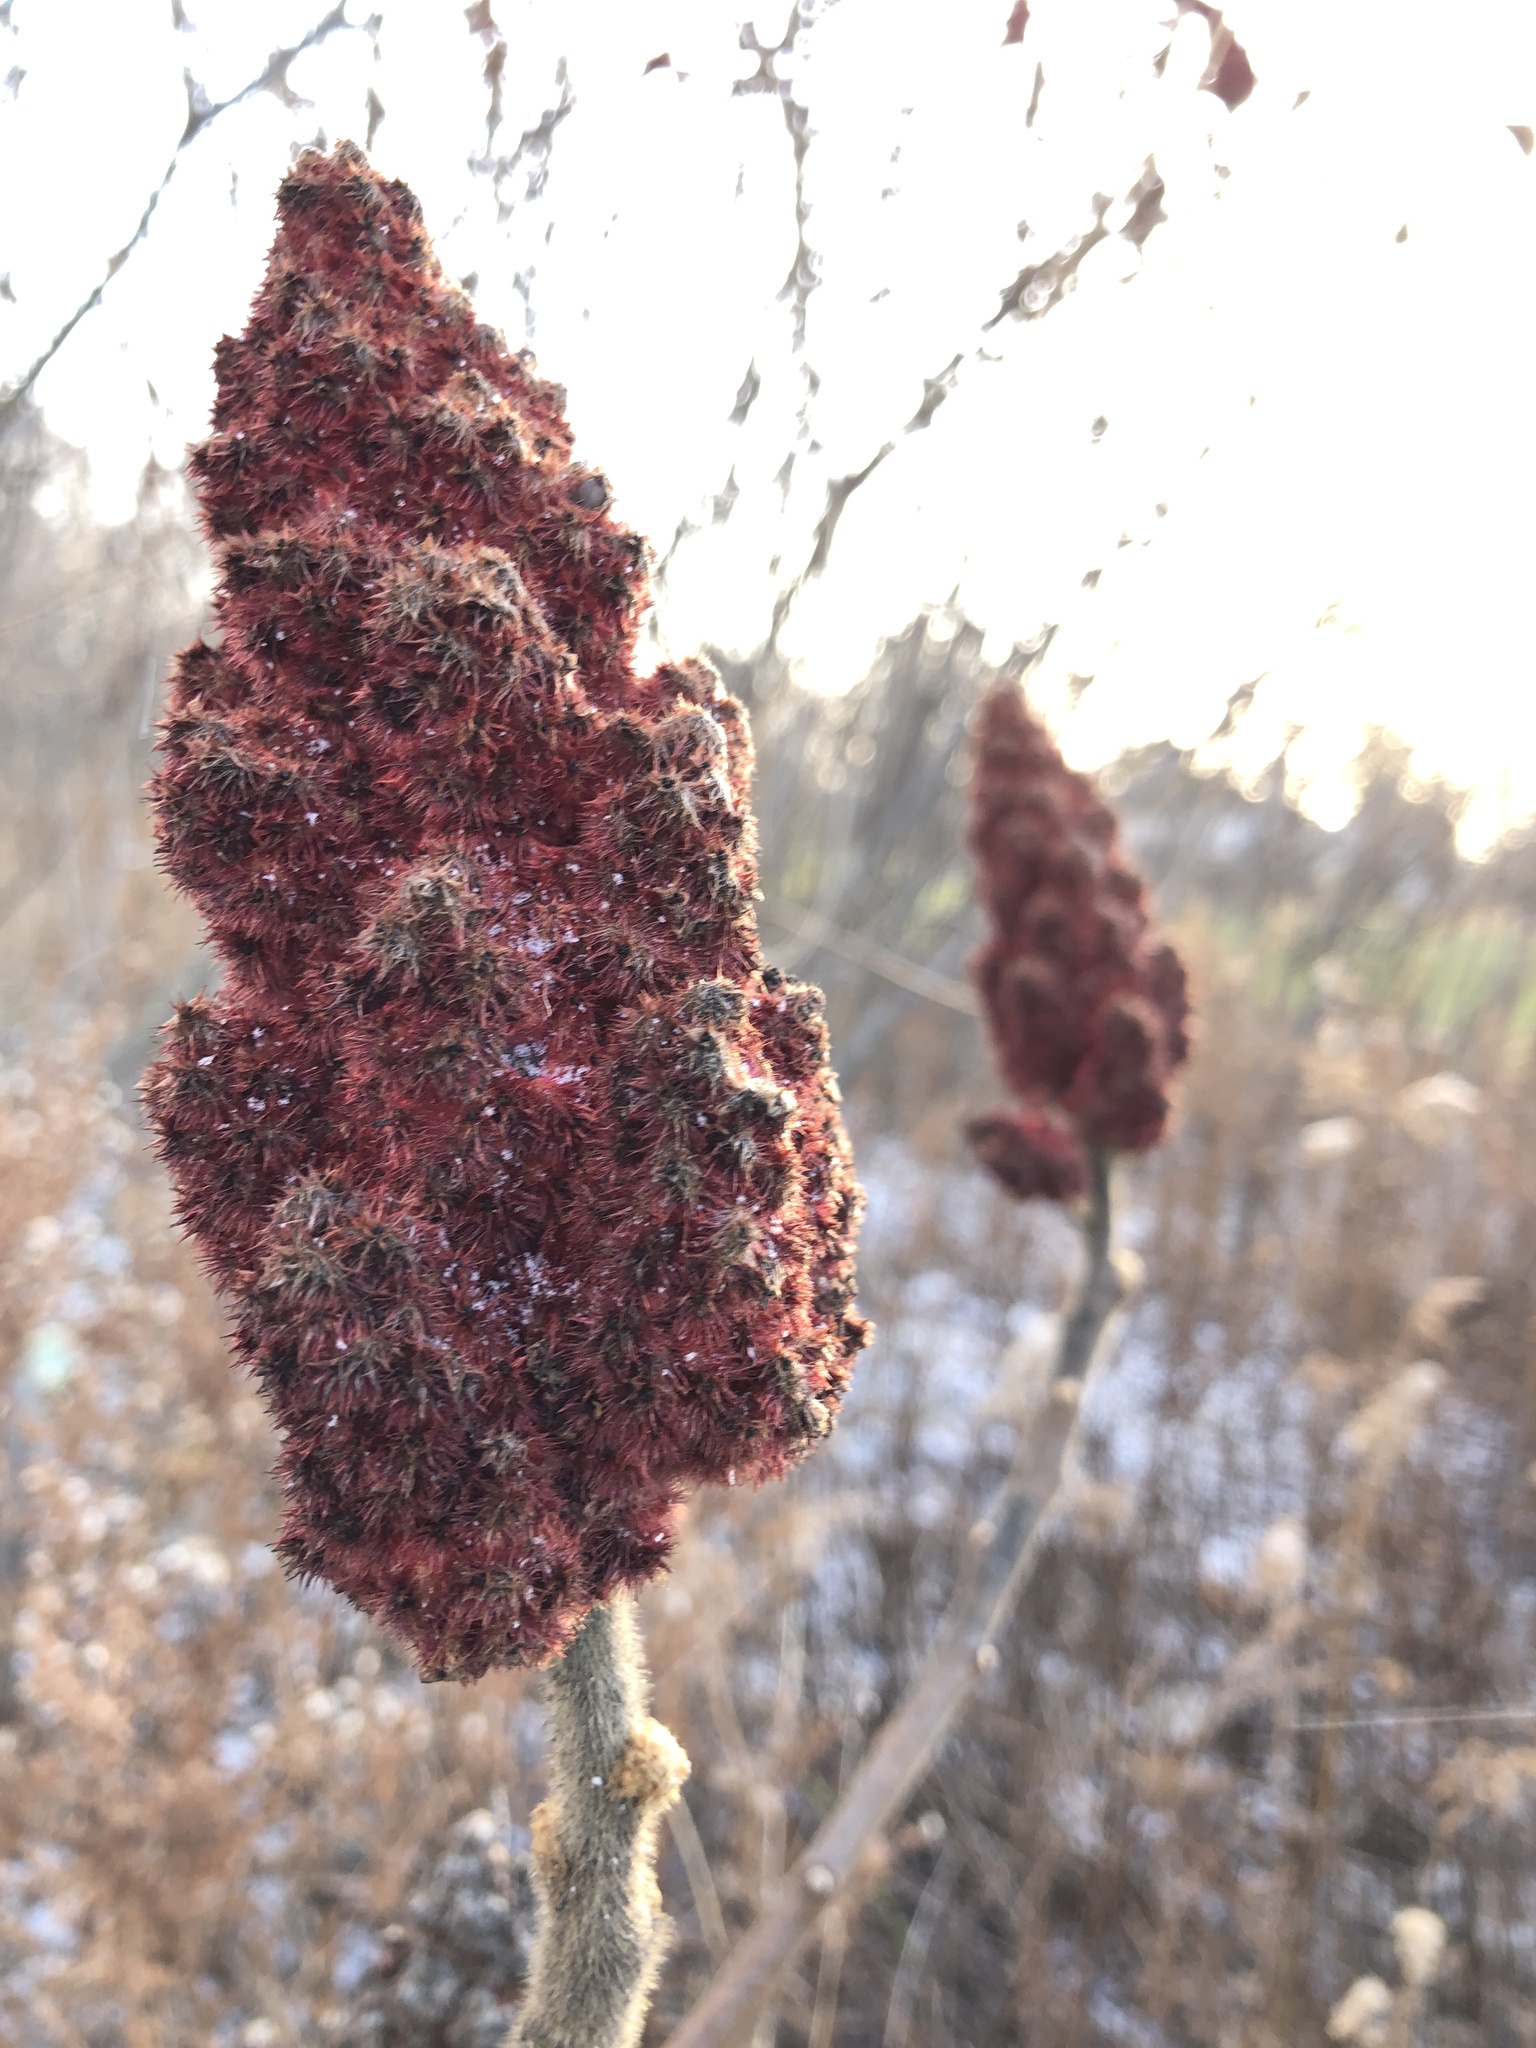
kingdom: Plantae
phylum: Tracheophyta
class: Magnoliopsida
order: Sapindales
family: Anacardiaceae
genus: Rhus
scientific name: Rhus typhina
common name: Staghorn sumac
